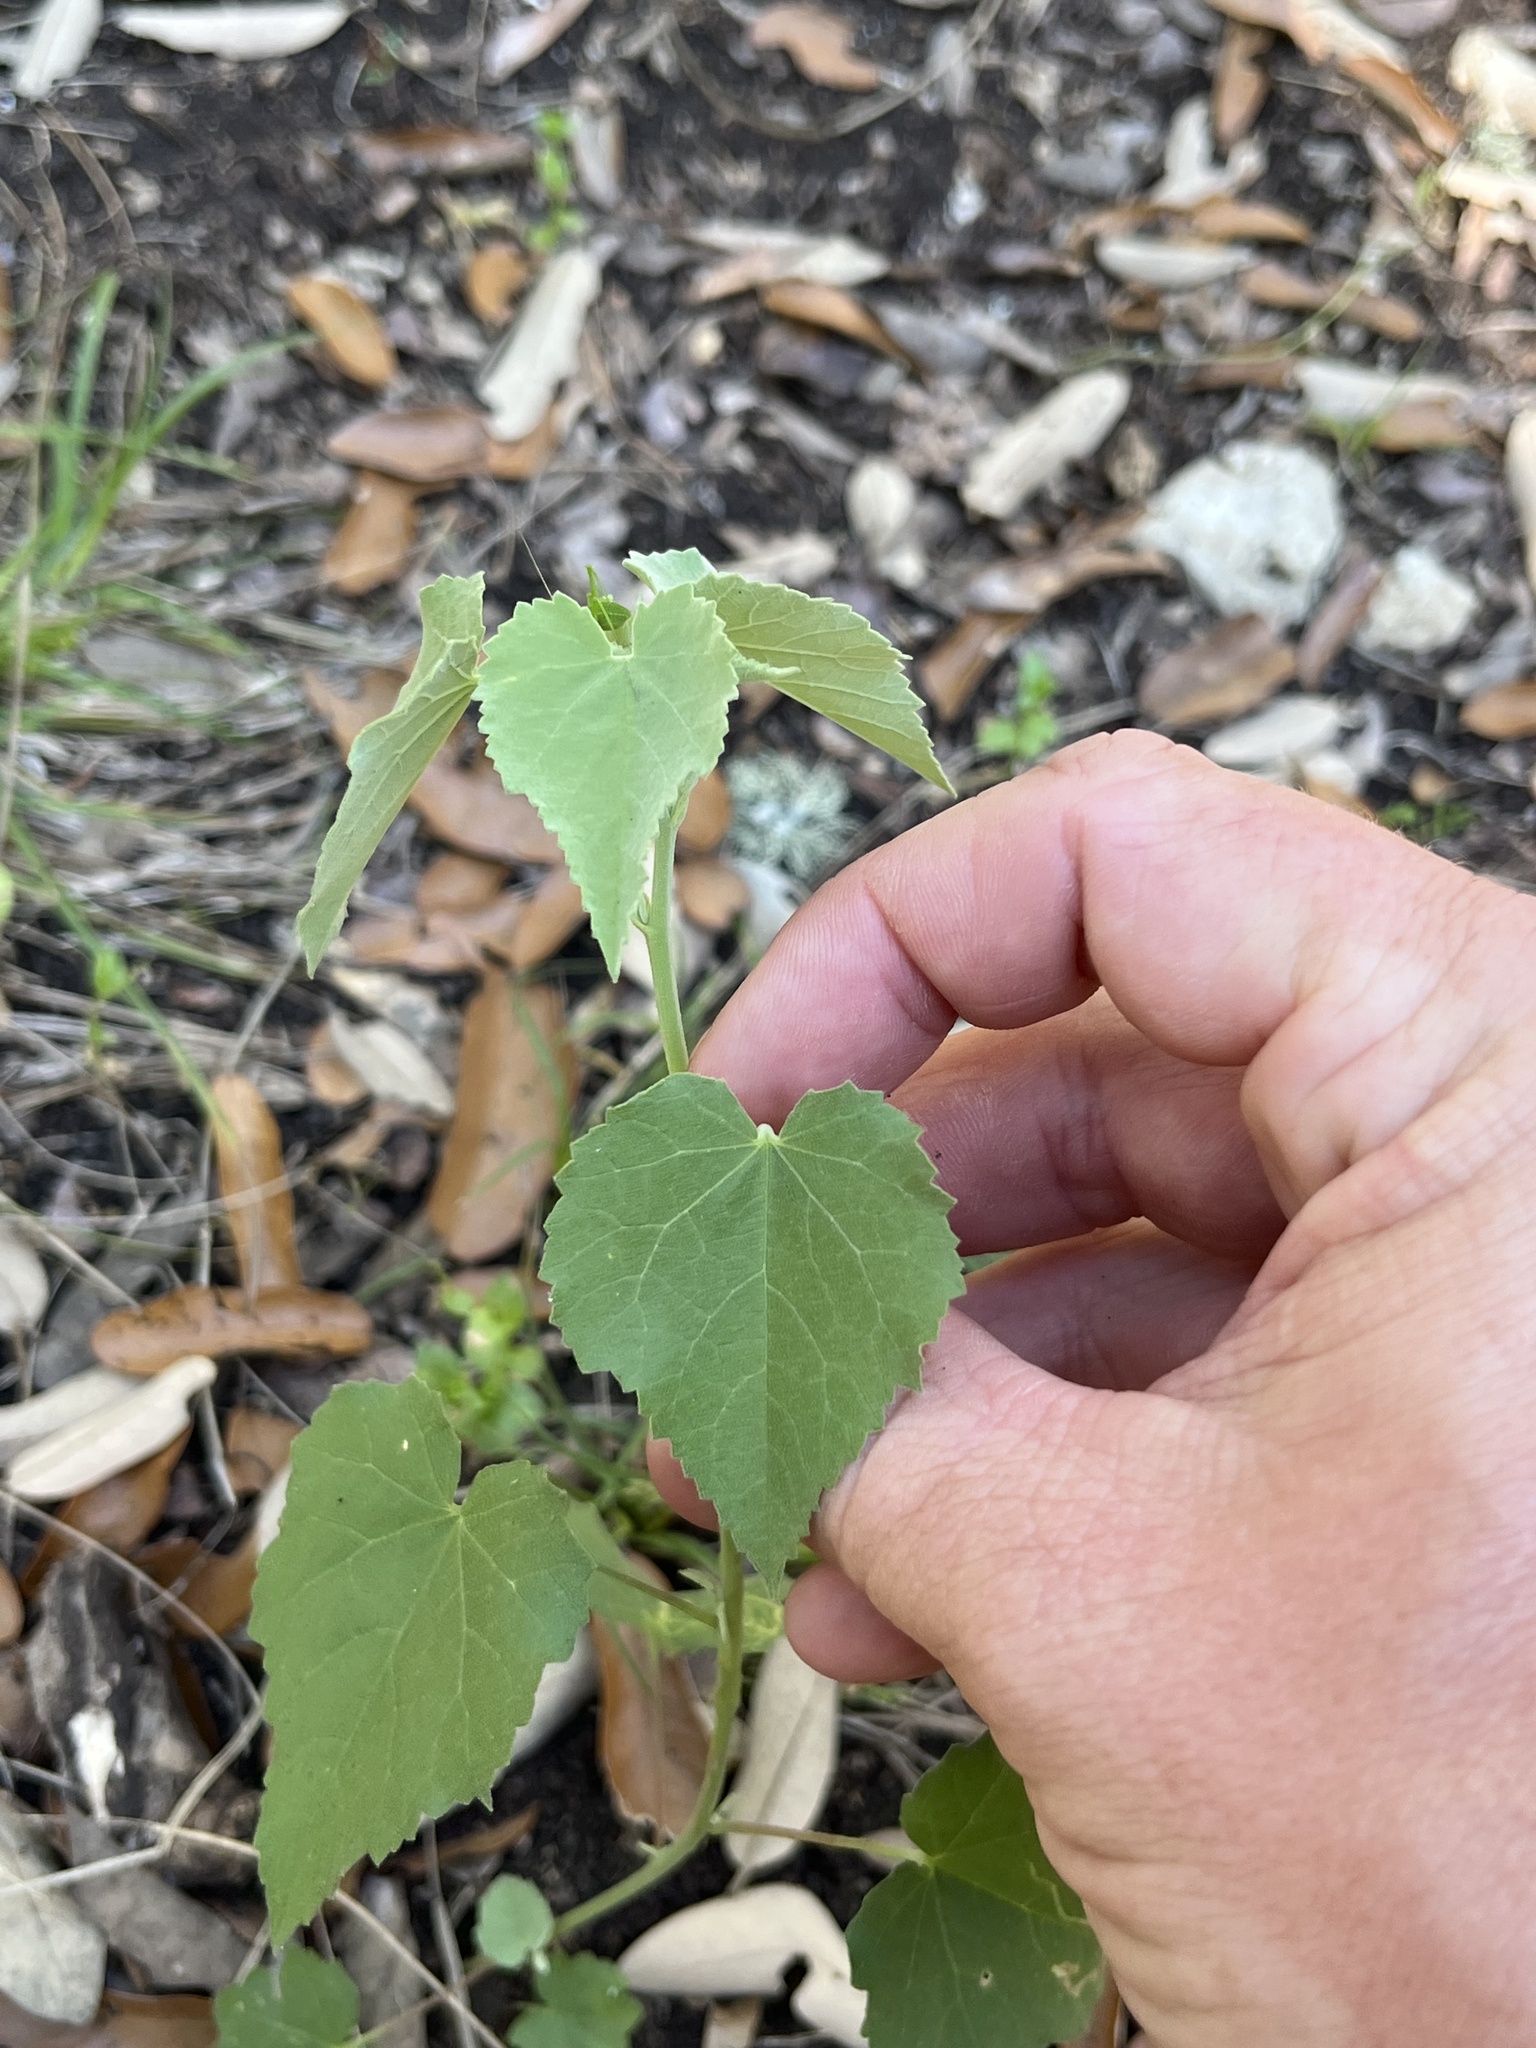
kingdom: Plantae
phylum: Tracheophyta
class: Magnoliopsida
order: Malvales
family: Malvaceae
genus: Abutilon
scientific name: Abutilon fruticosum
